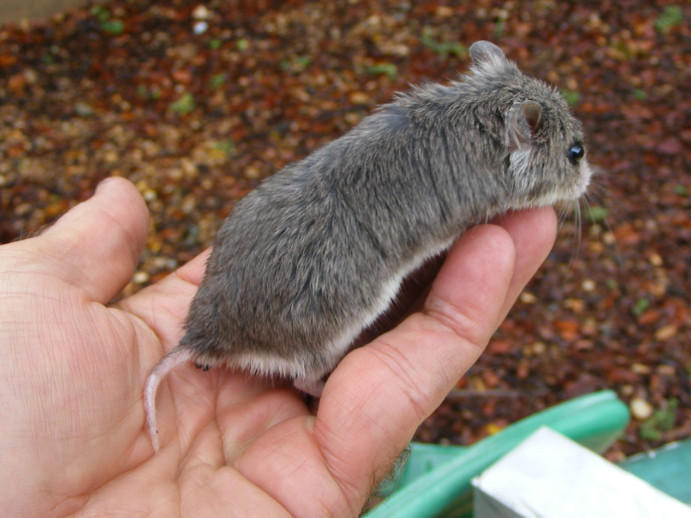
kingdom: Animalia
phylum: Chordata
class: Mammalia
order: Rodentia
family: Nesomyidae
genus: Saccostomus
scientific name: Saccostomus campestris
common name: Southern african pouched mouse
